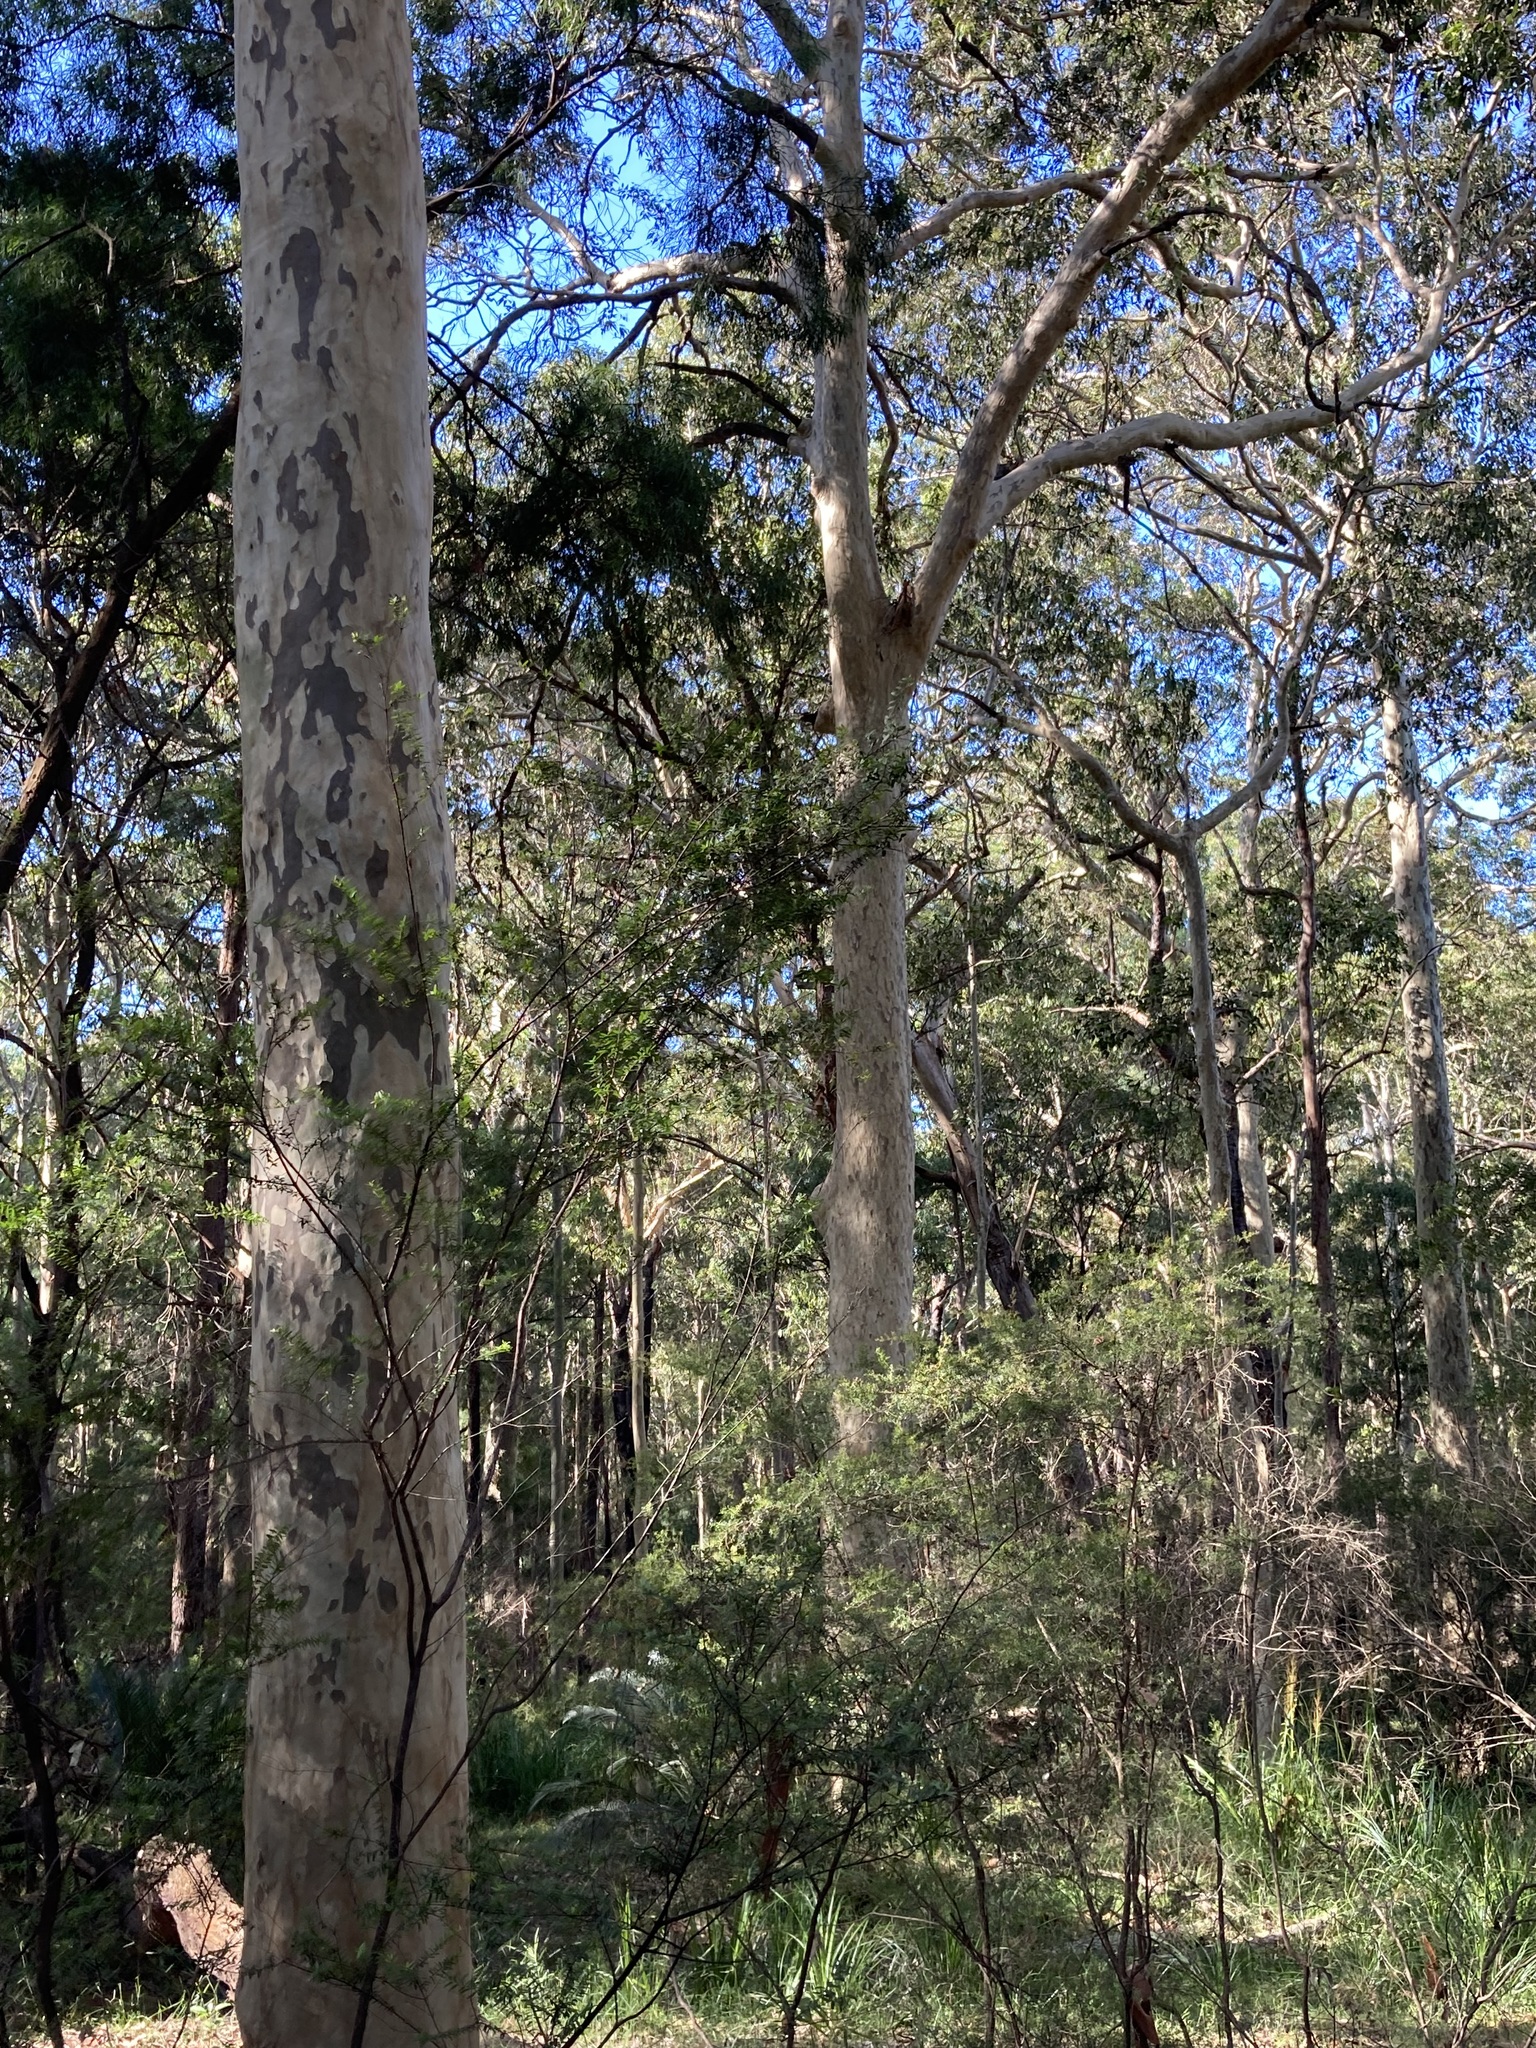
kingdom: Plantae
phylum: Tracheophyta
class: Magnoliopsida
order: Myrtales
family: Myrtaceae
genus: Corymbia
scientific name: Corymbia maculata
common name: Spotted gum
